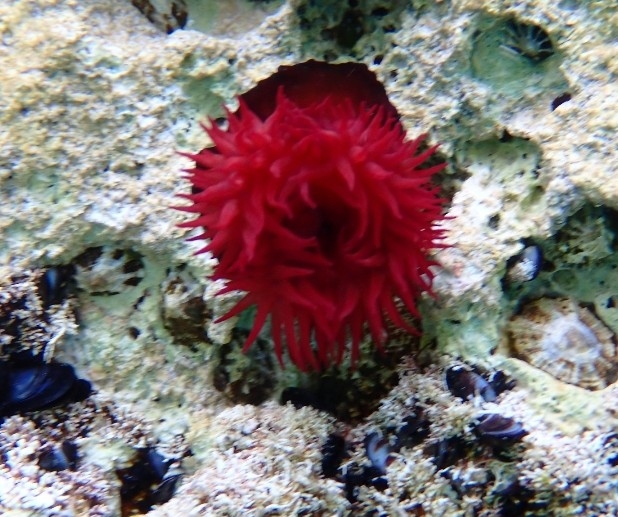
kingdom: Animalia
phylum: Cnidaria
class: Anthozoa
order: Actiniaria
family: Actiniidae
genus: Actinia
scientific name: Actinia mediterranea
